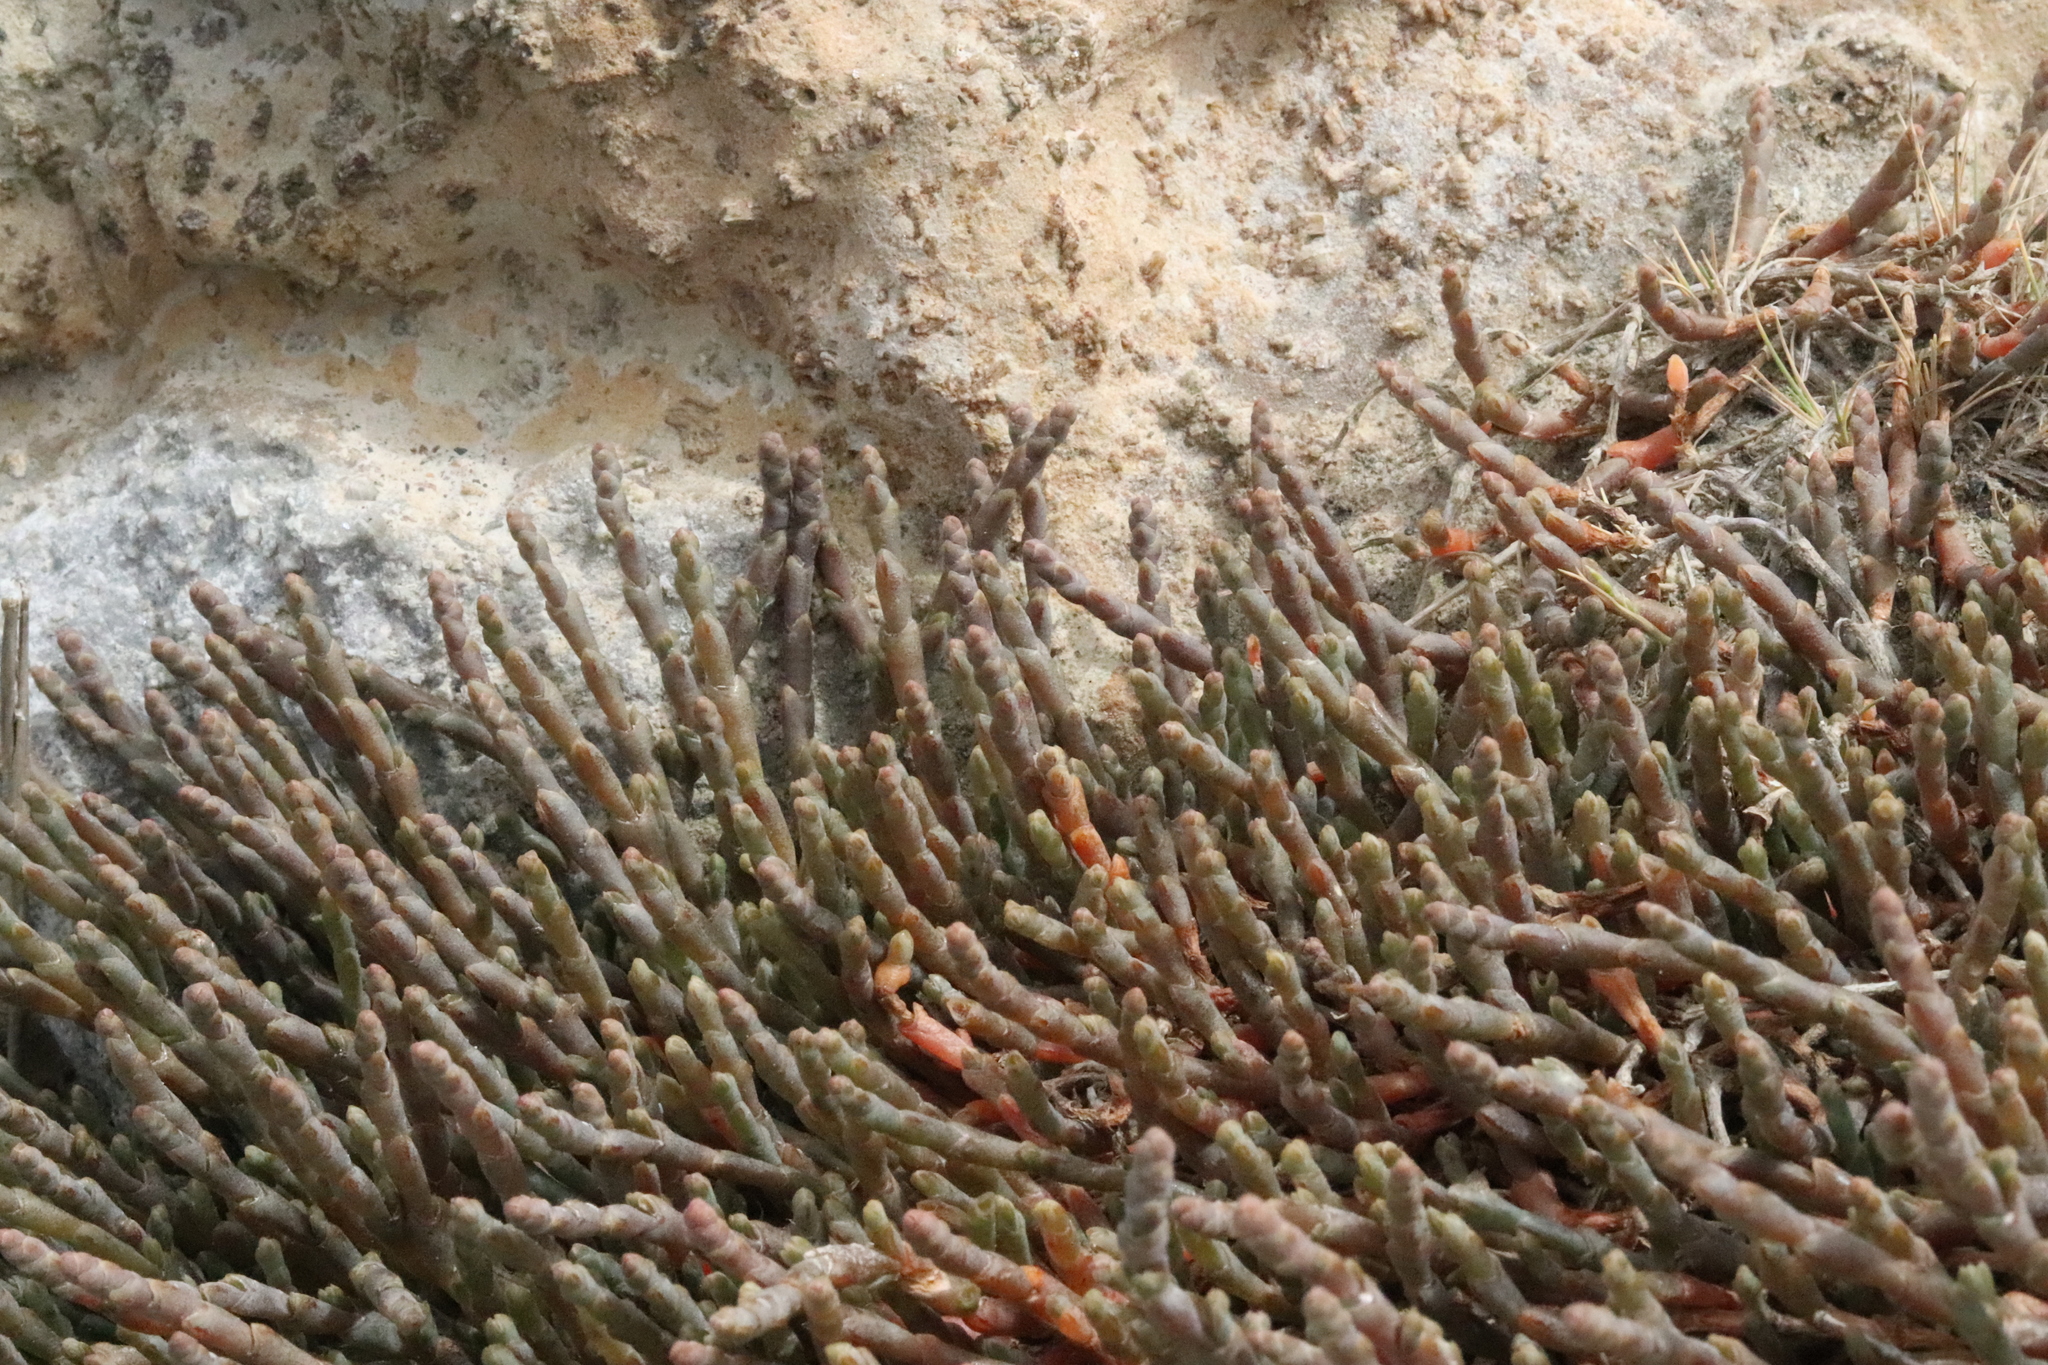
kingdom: Plantae
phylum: Tracheophyta
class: Magnoliopsida
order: Caryophyllales
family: Amaranthaceae
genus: Salicornia
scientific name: Salicornia quinqueflora
